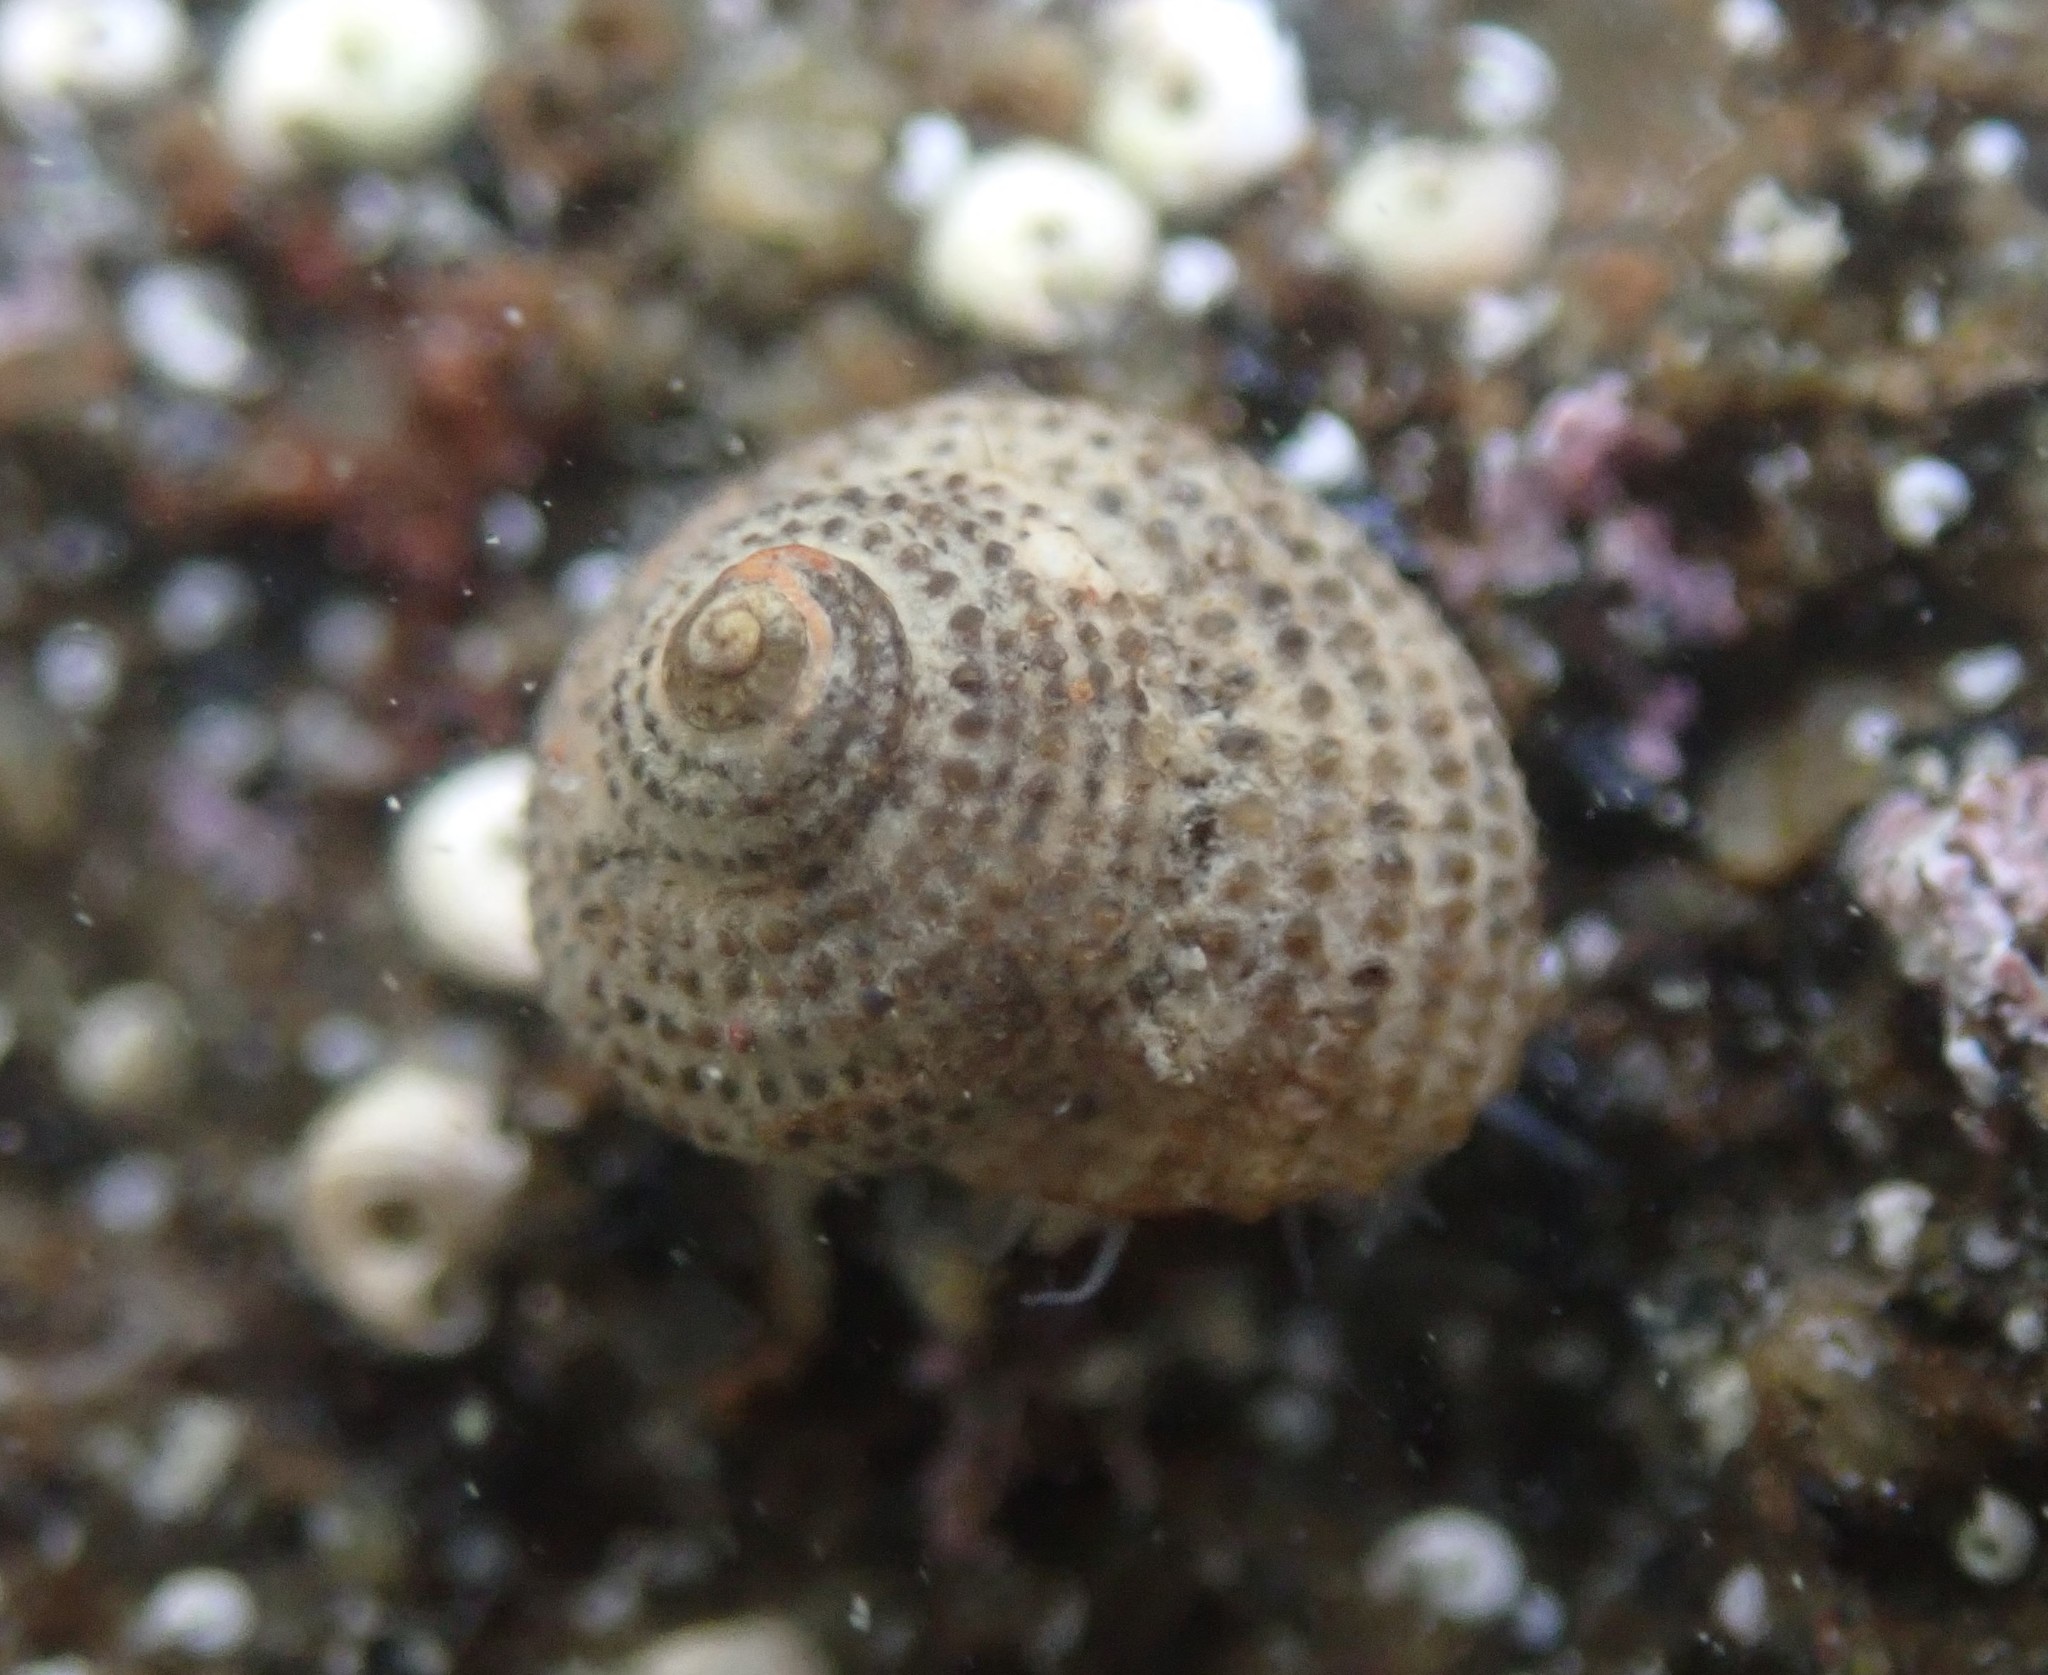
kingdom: Animalia
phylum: Mollusca
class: Gastropoda
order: Seguenziida
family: Chilodontaidae
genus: Herpetopoma
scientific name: Herpetopoma bellum
